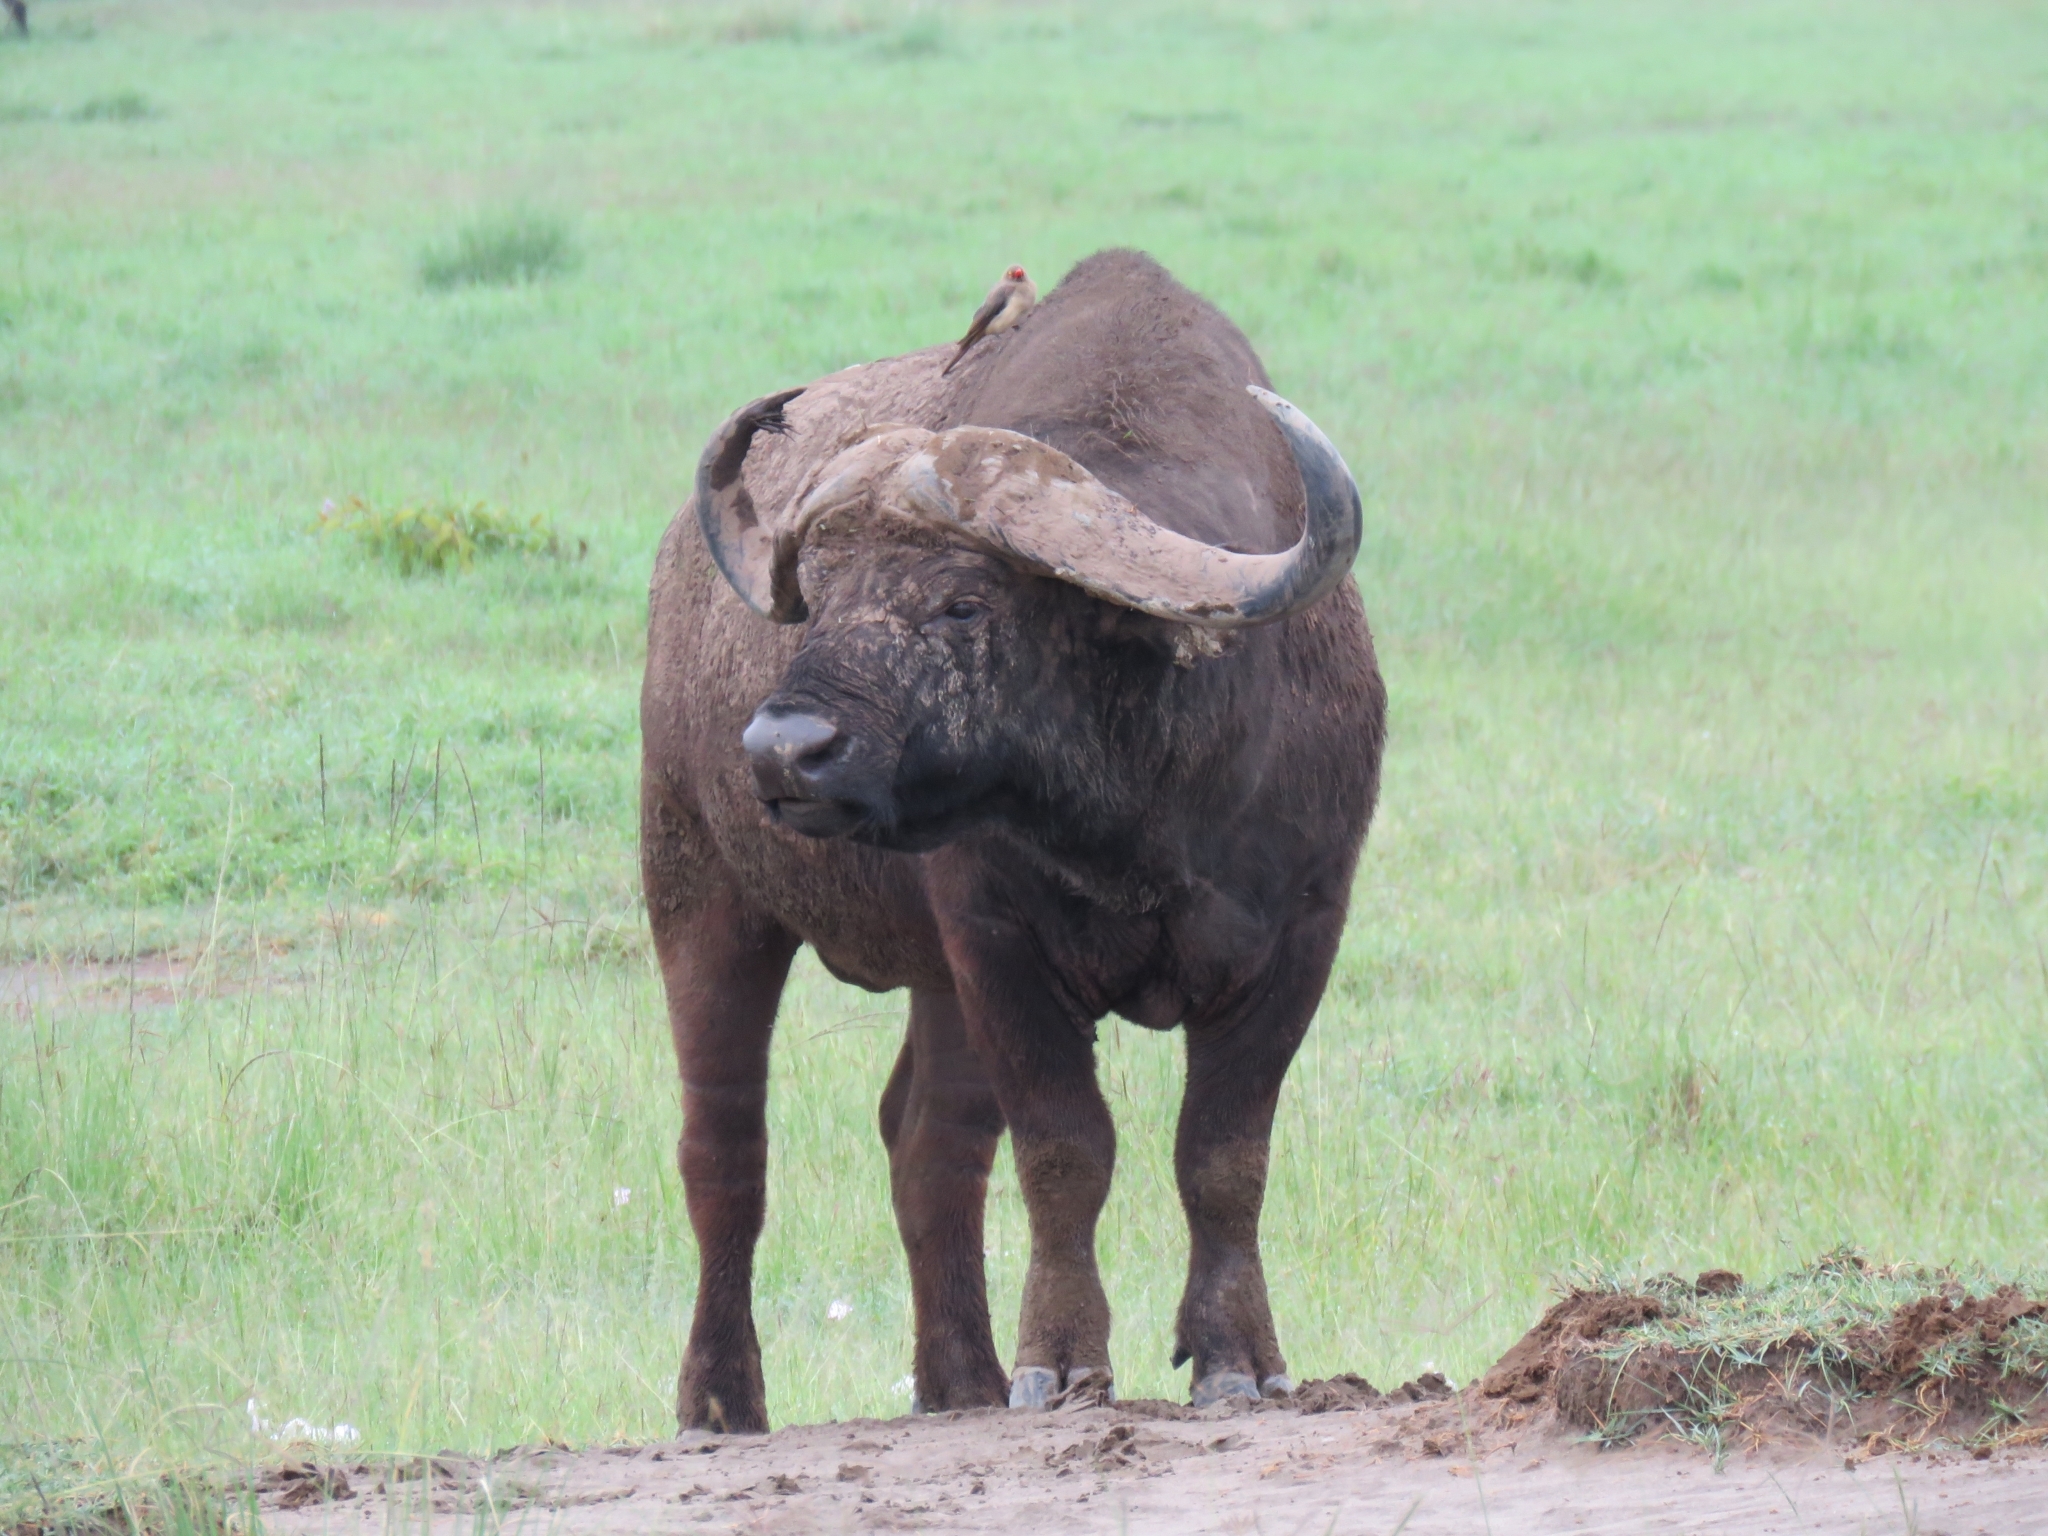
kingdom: Animalia
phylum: Chordata
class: Mammalia
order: Artiodactyla
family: Bovidae
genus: Syncerus
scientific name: Syncerus caffer
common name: African buffalo
